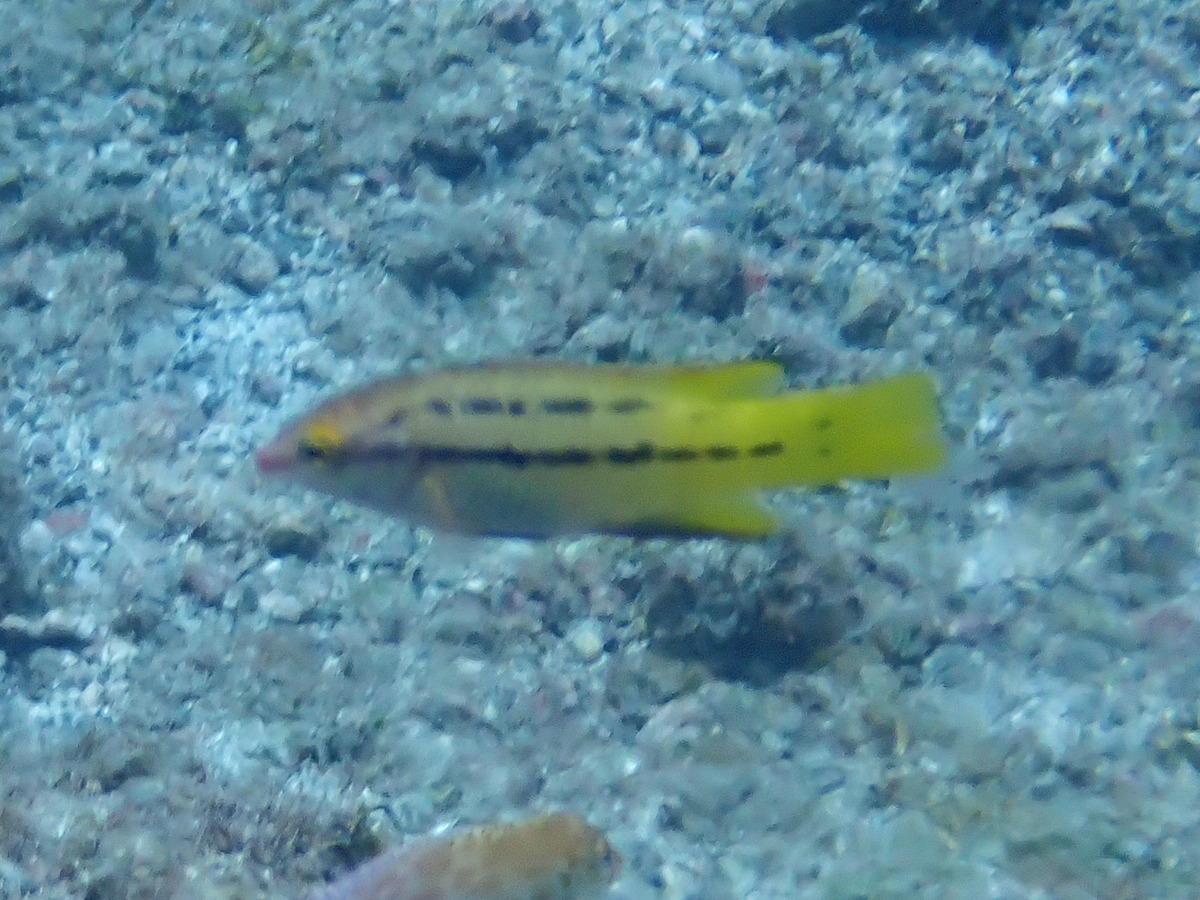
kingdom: Animalia
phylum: Chordata
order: Perciformes
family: Labridae
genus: Bodianus
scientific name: Bodianus diplotaenia
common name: Mexican hogfish
